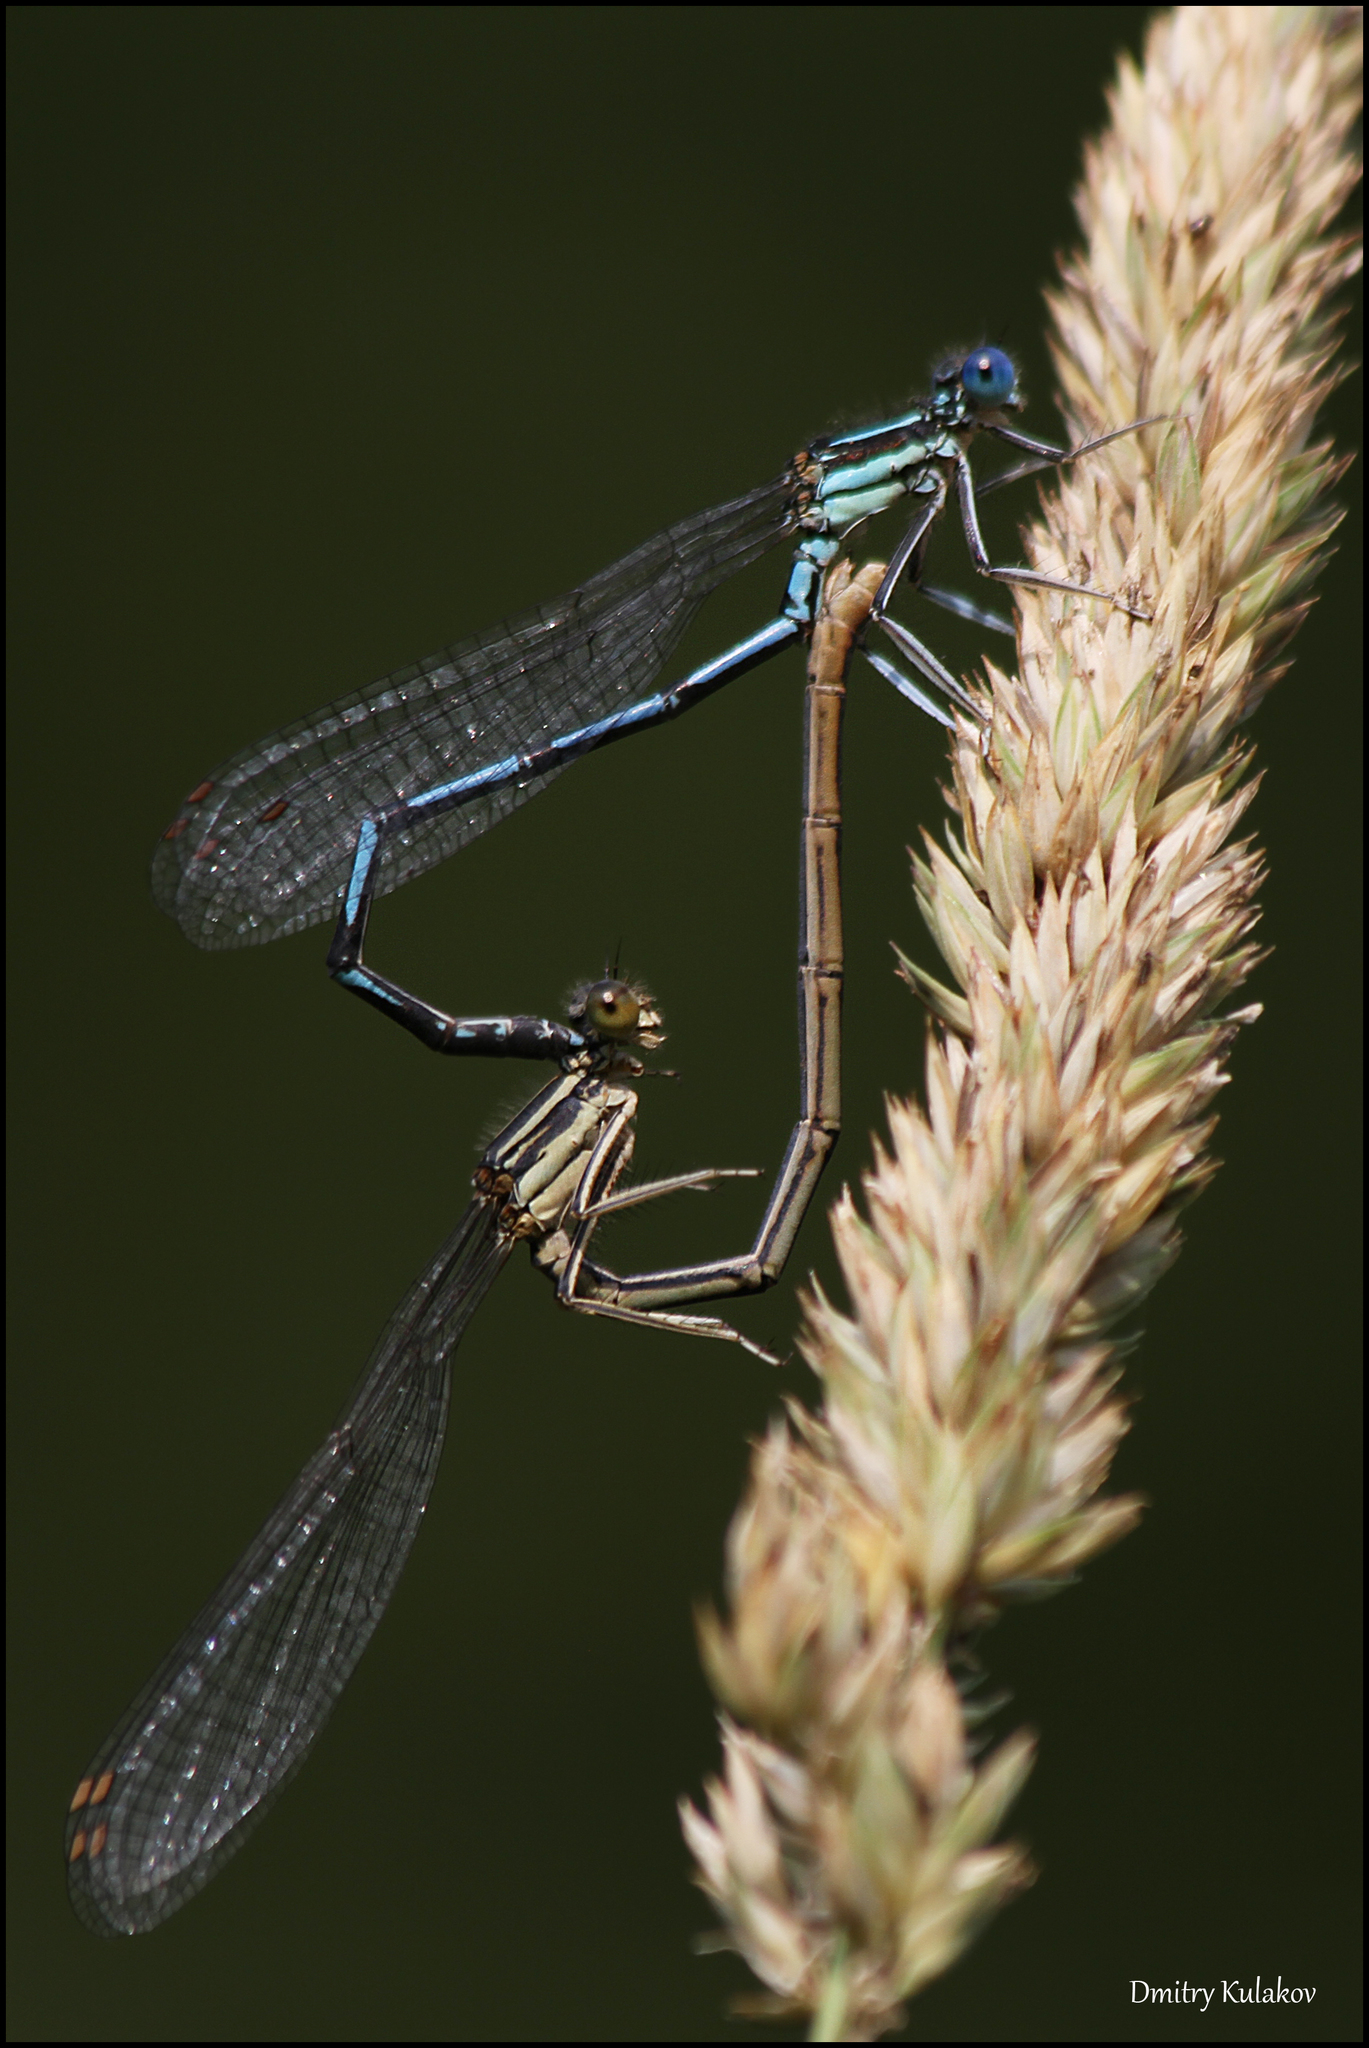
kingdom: Animalia
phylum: Arthropoda
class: Insecta
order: Odonata
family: Platycnemididae
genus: Platycnemis
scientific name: Platycnemis pennipes
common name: White-legged damselfly
